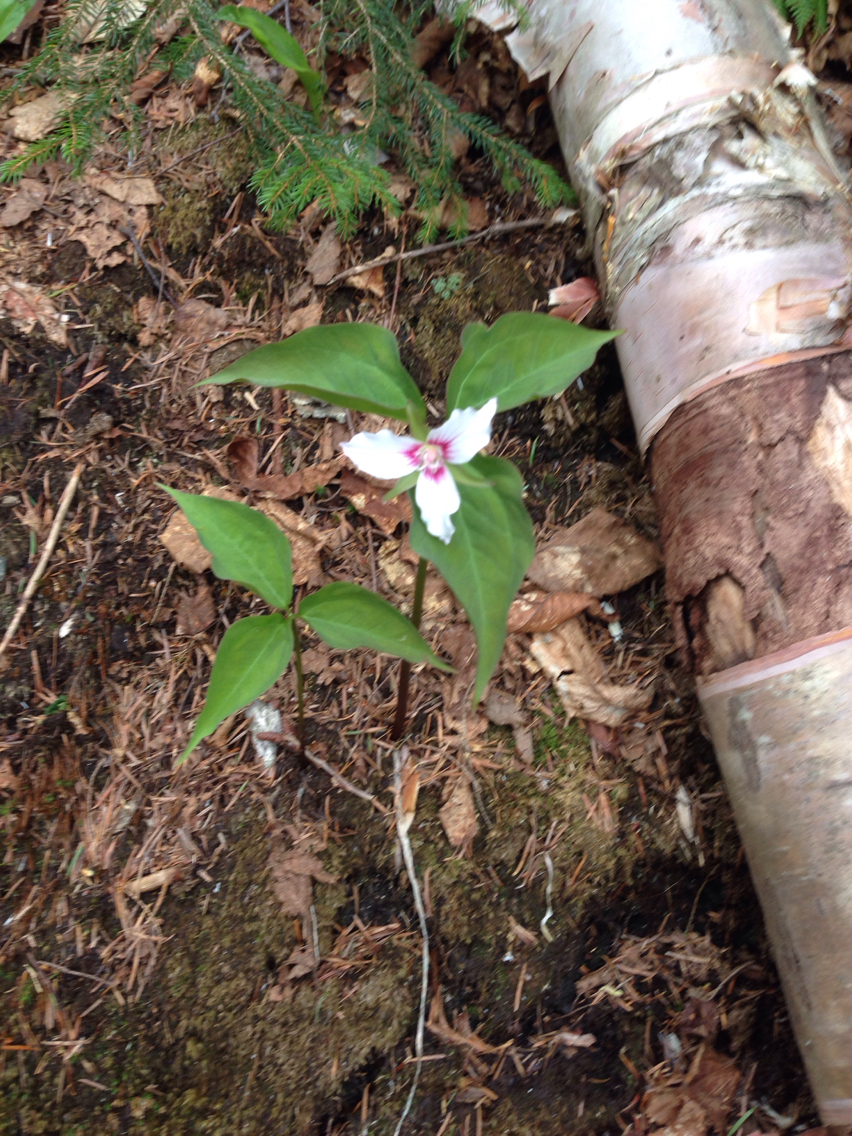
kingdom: Plantae
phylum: Tracheophyta
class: Liliopsida
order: Liliales
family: Melanthiaceae
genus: Trillium
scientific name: Trillium undulatum
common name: Paint trillium
